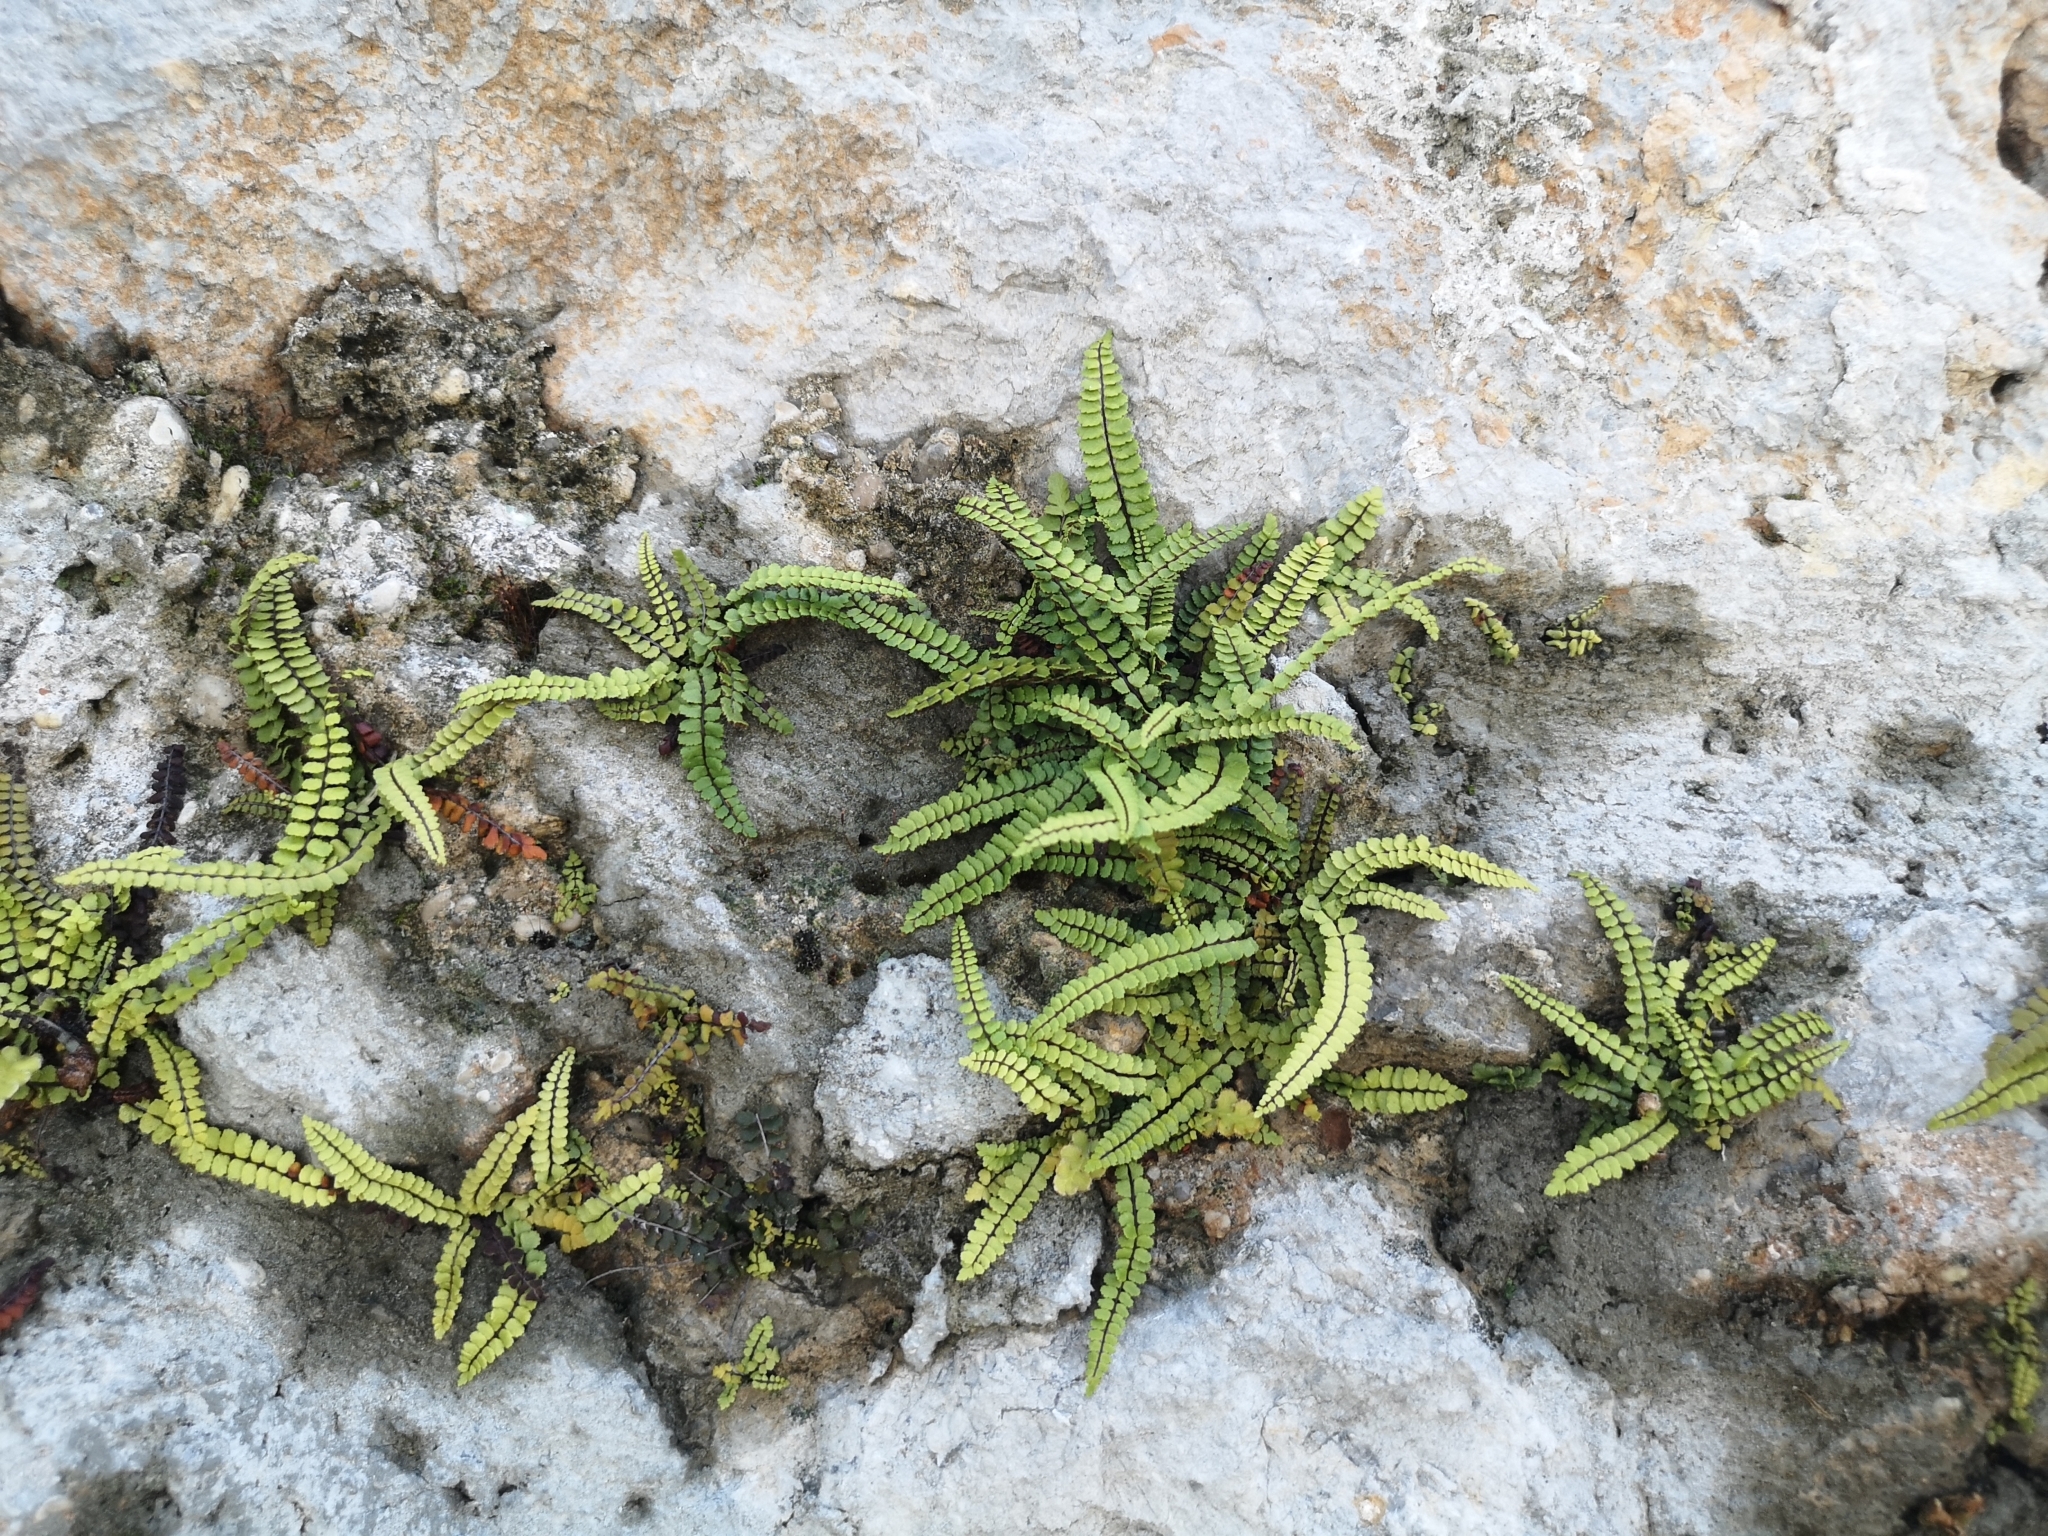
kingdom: Plantae
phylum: Tracheophyta
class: Polypodiopsida
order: Polypodiales
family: Aspleniaceae
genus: Asplenium
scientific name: Asplenium trichomanes
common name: Maidenhair spleenwort
